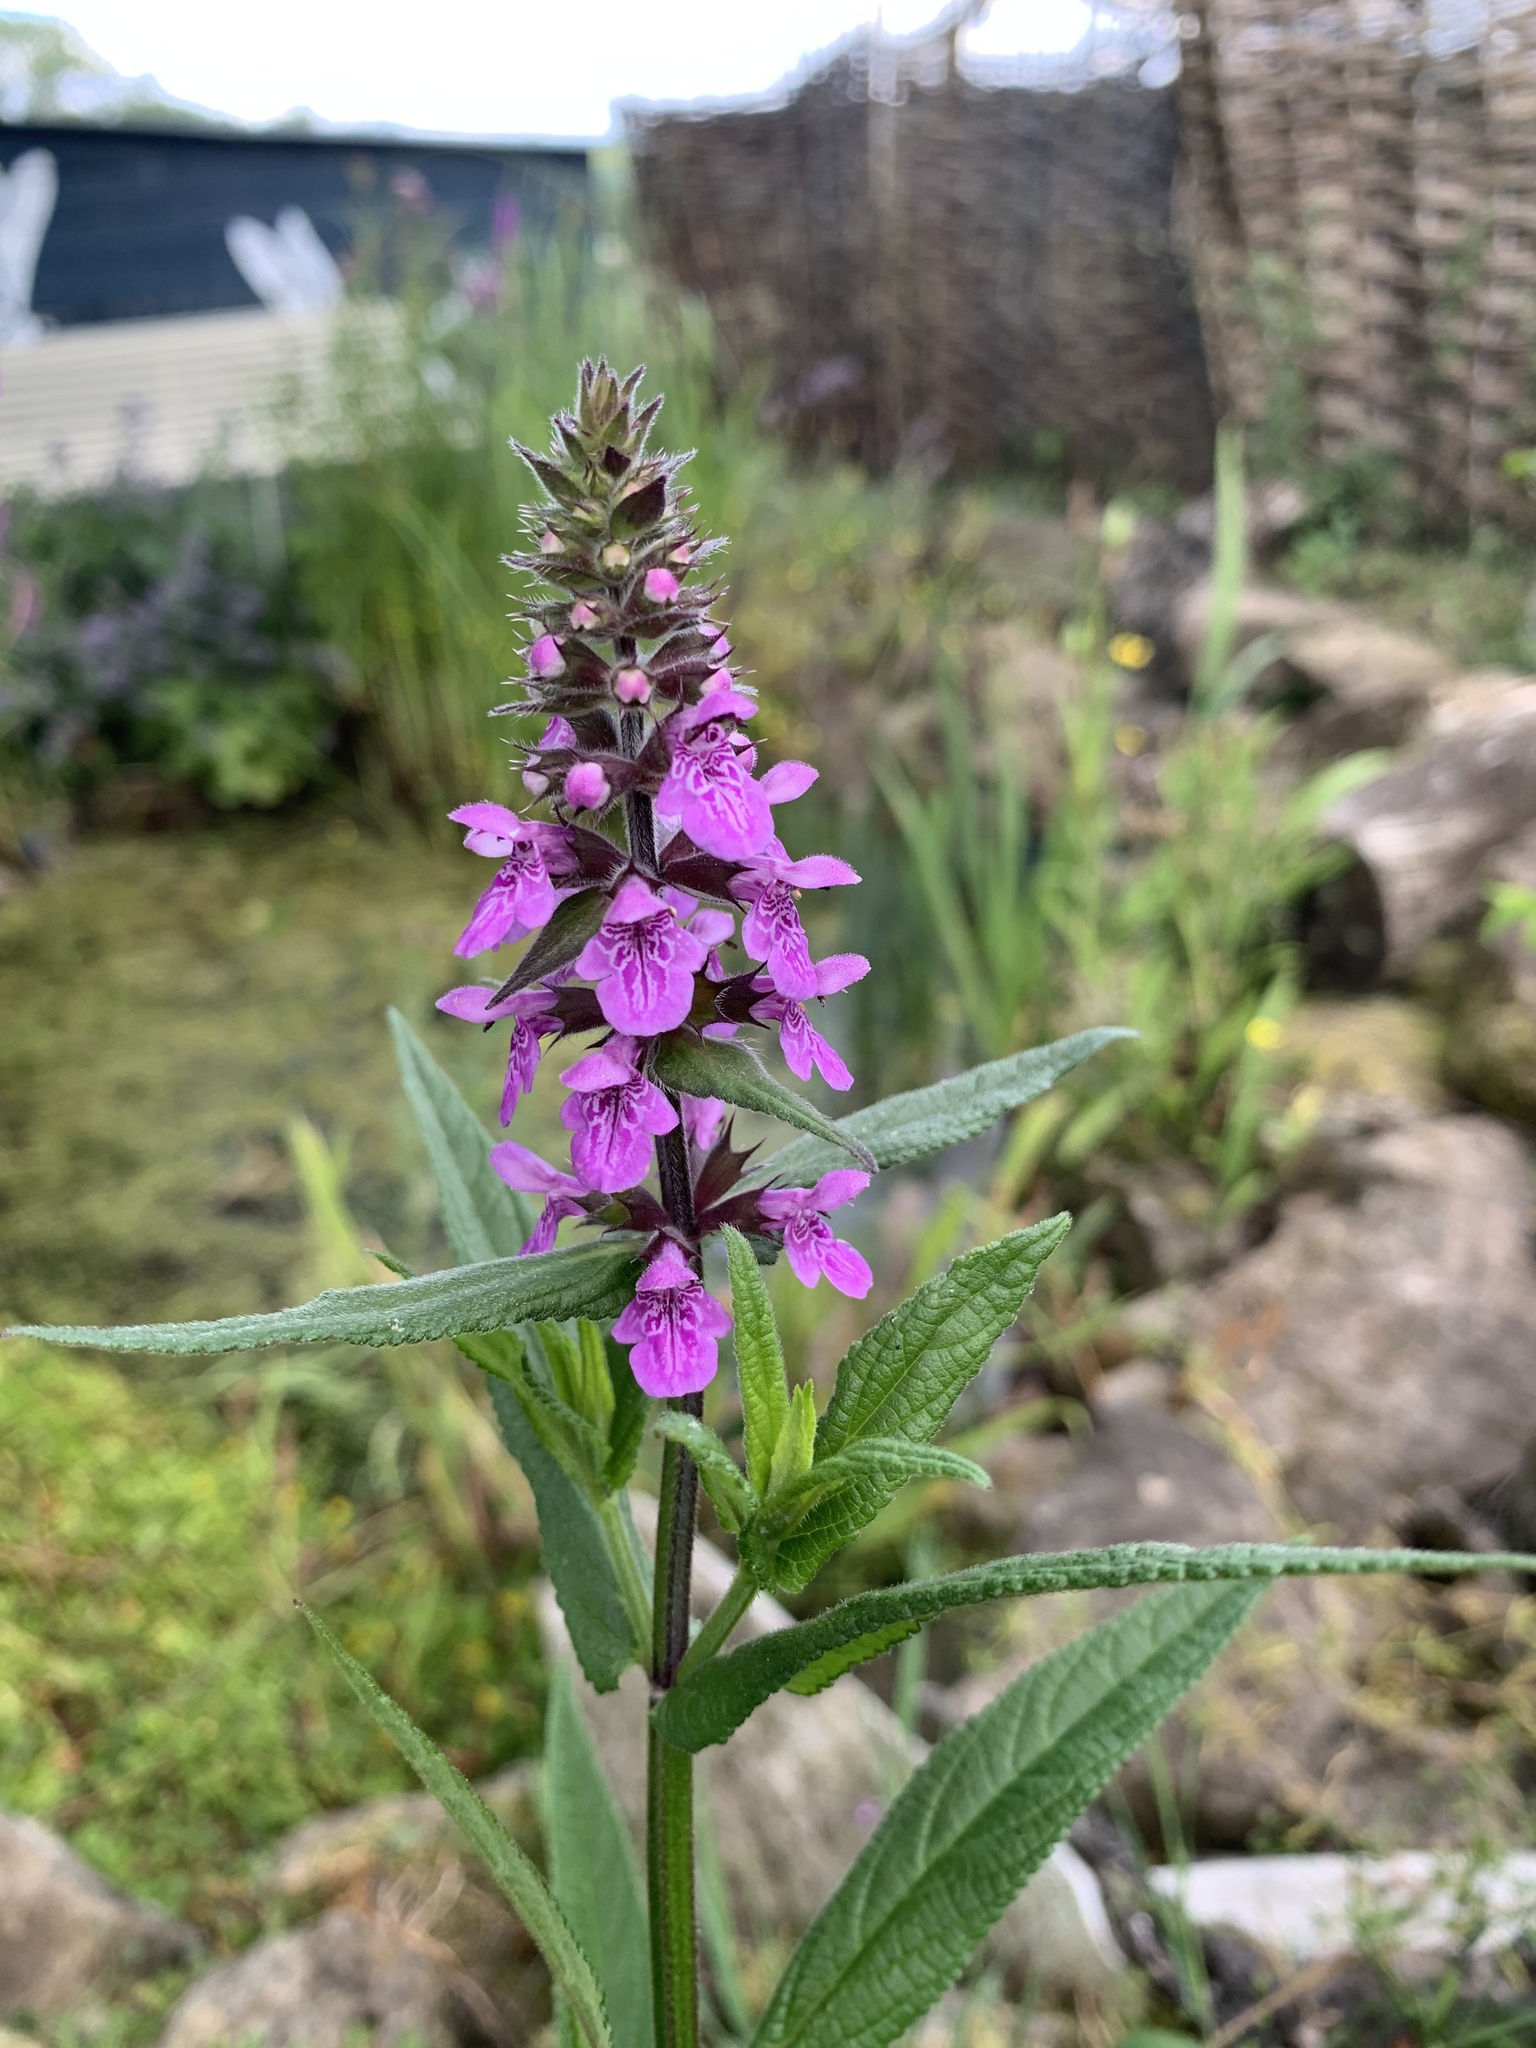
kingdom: Plantae
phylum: Tracheophyta
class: Magnoliopsida
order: Lamiales
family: Lamiaceae
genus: Stachys
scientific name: Stachys palustris
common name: Marsh woundwort
